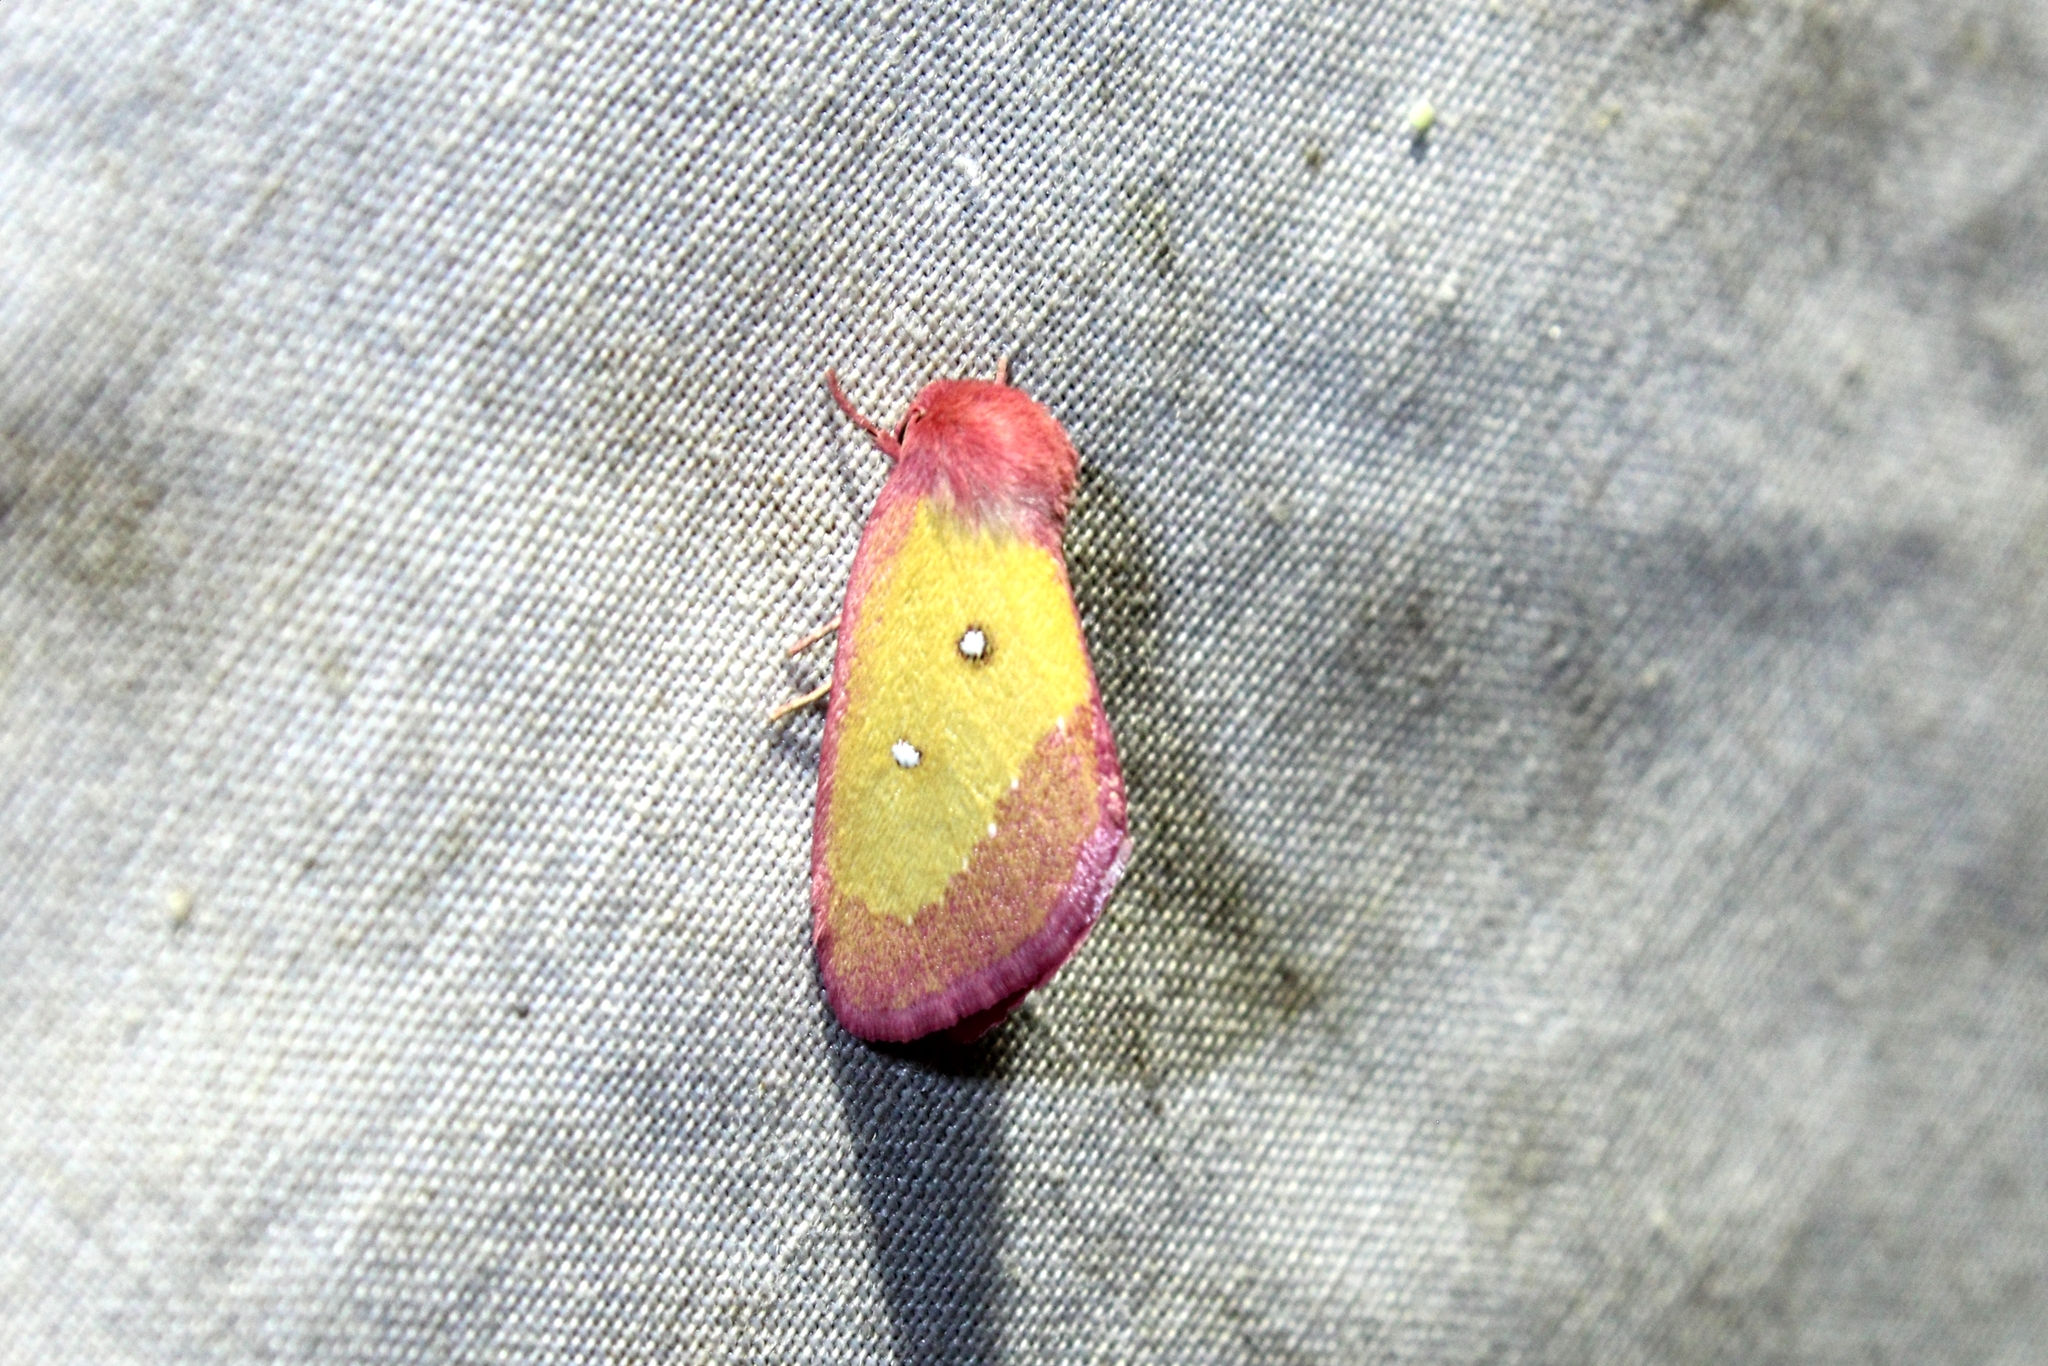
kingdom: Animalia
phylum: Arthropoda
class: Insecta
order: Lepidoptera
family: Noctuidae
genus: Derrima
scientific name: Derrima stellata
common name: Pink star moth
